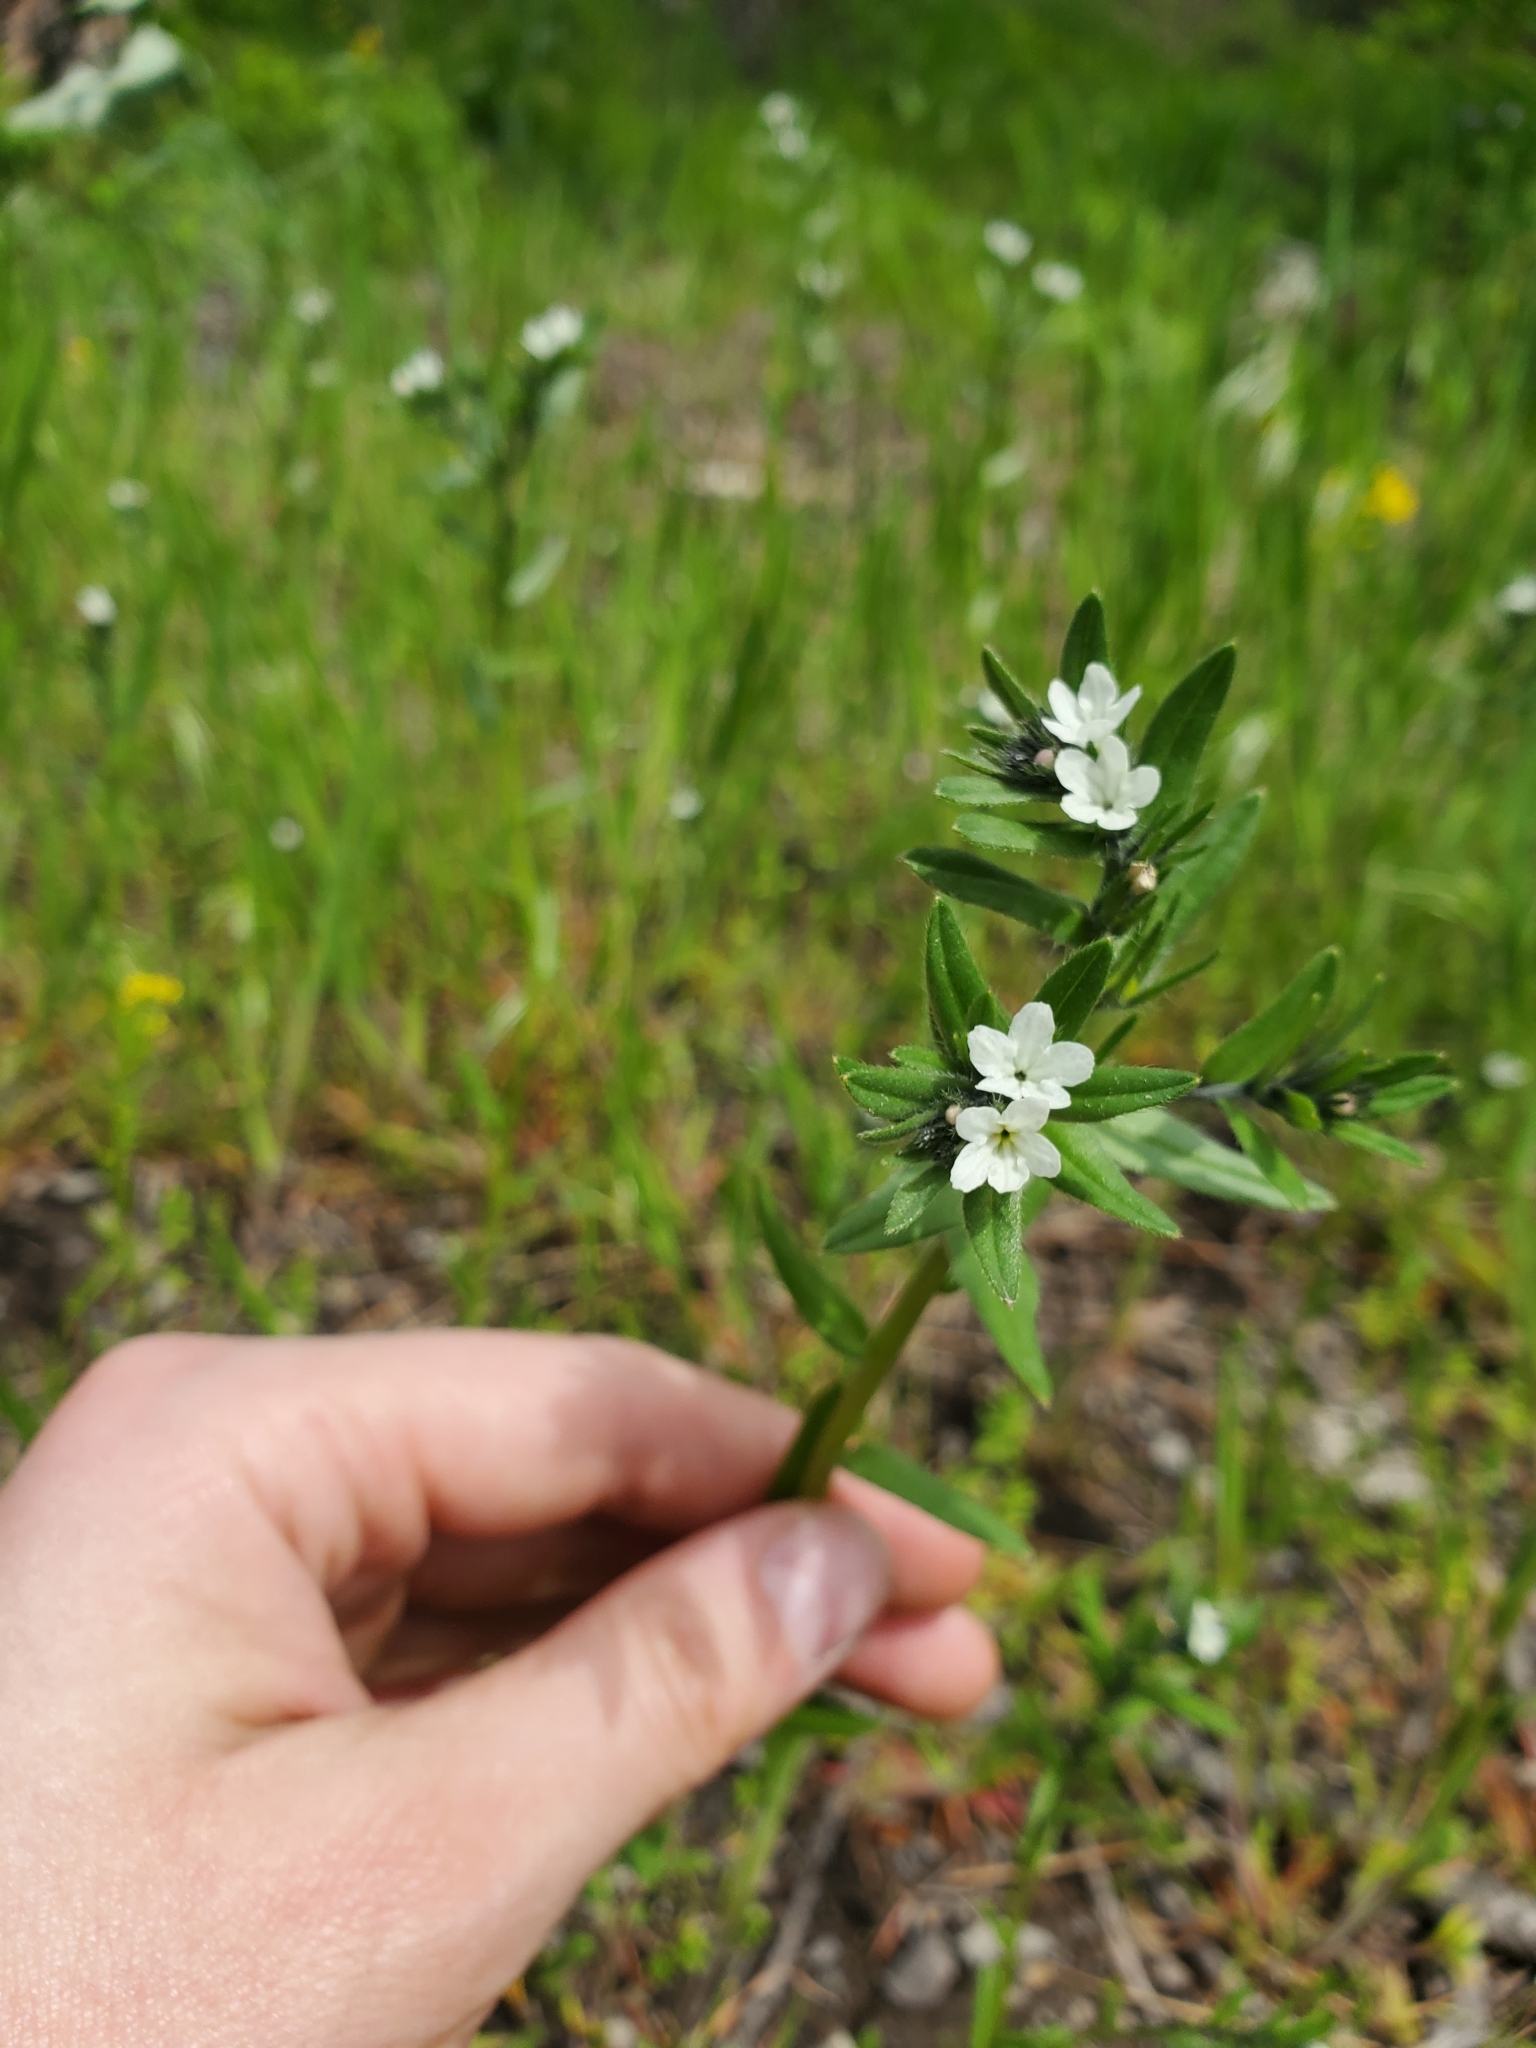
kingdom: Plantae
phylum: Tracheophyta
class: Magnoliopsida
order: Boraginales
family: Boraginaceae
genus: Buglossoides
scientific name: Buglossoides arvensis
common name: Corn gromwell
